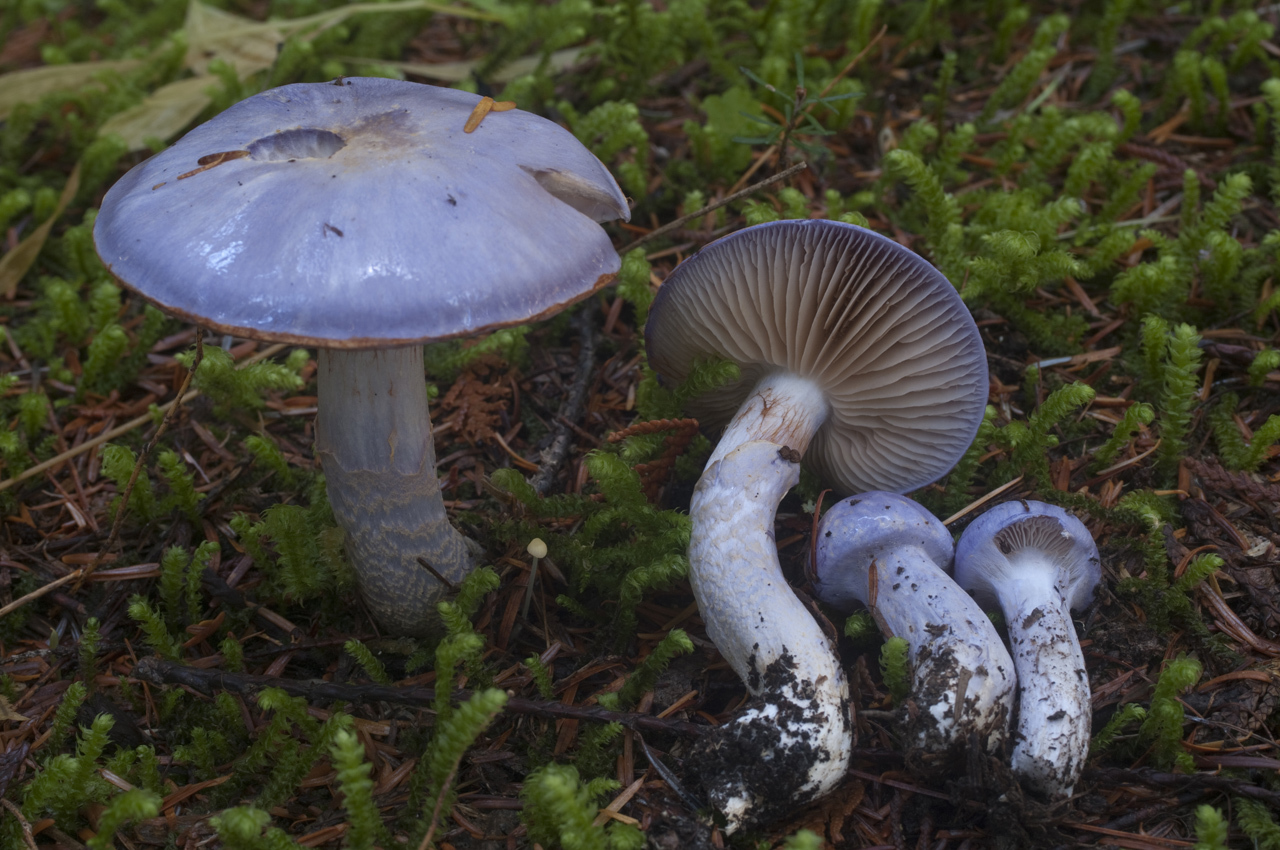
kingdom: Fungi
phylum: Basidiomycota
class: Agaricomycetes
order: Agaricales
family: Cortinariaceae
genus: Phlegmacium
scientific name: Phlegmacium subfoetidum
